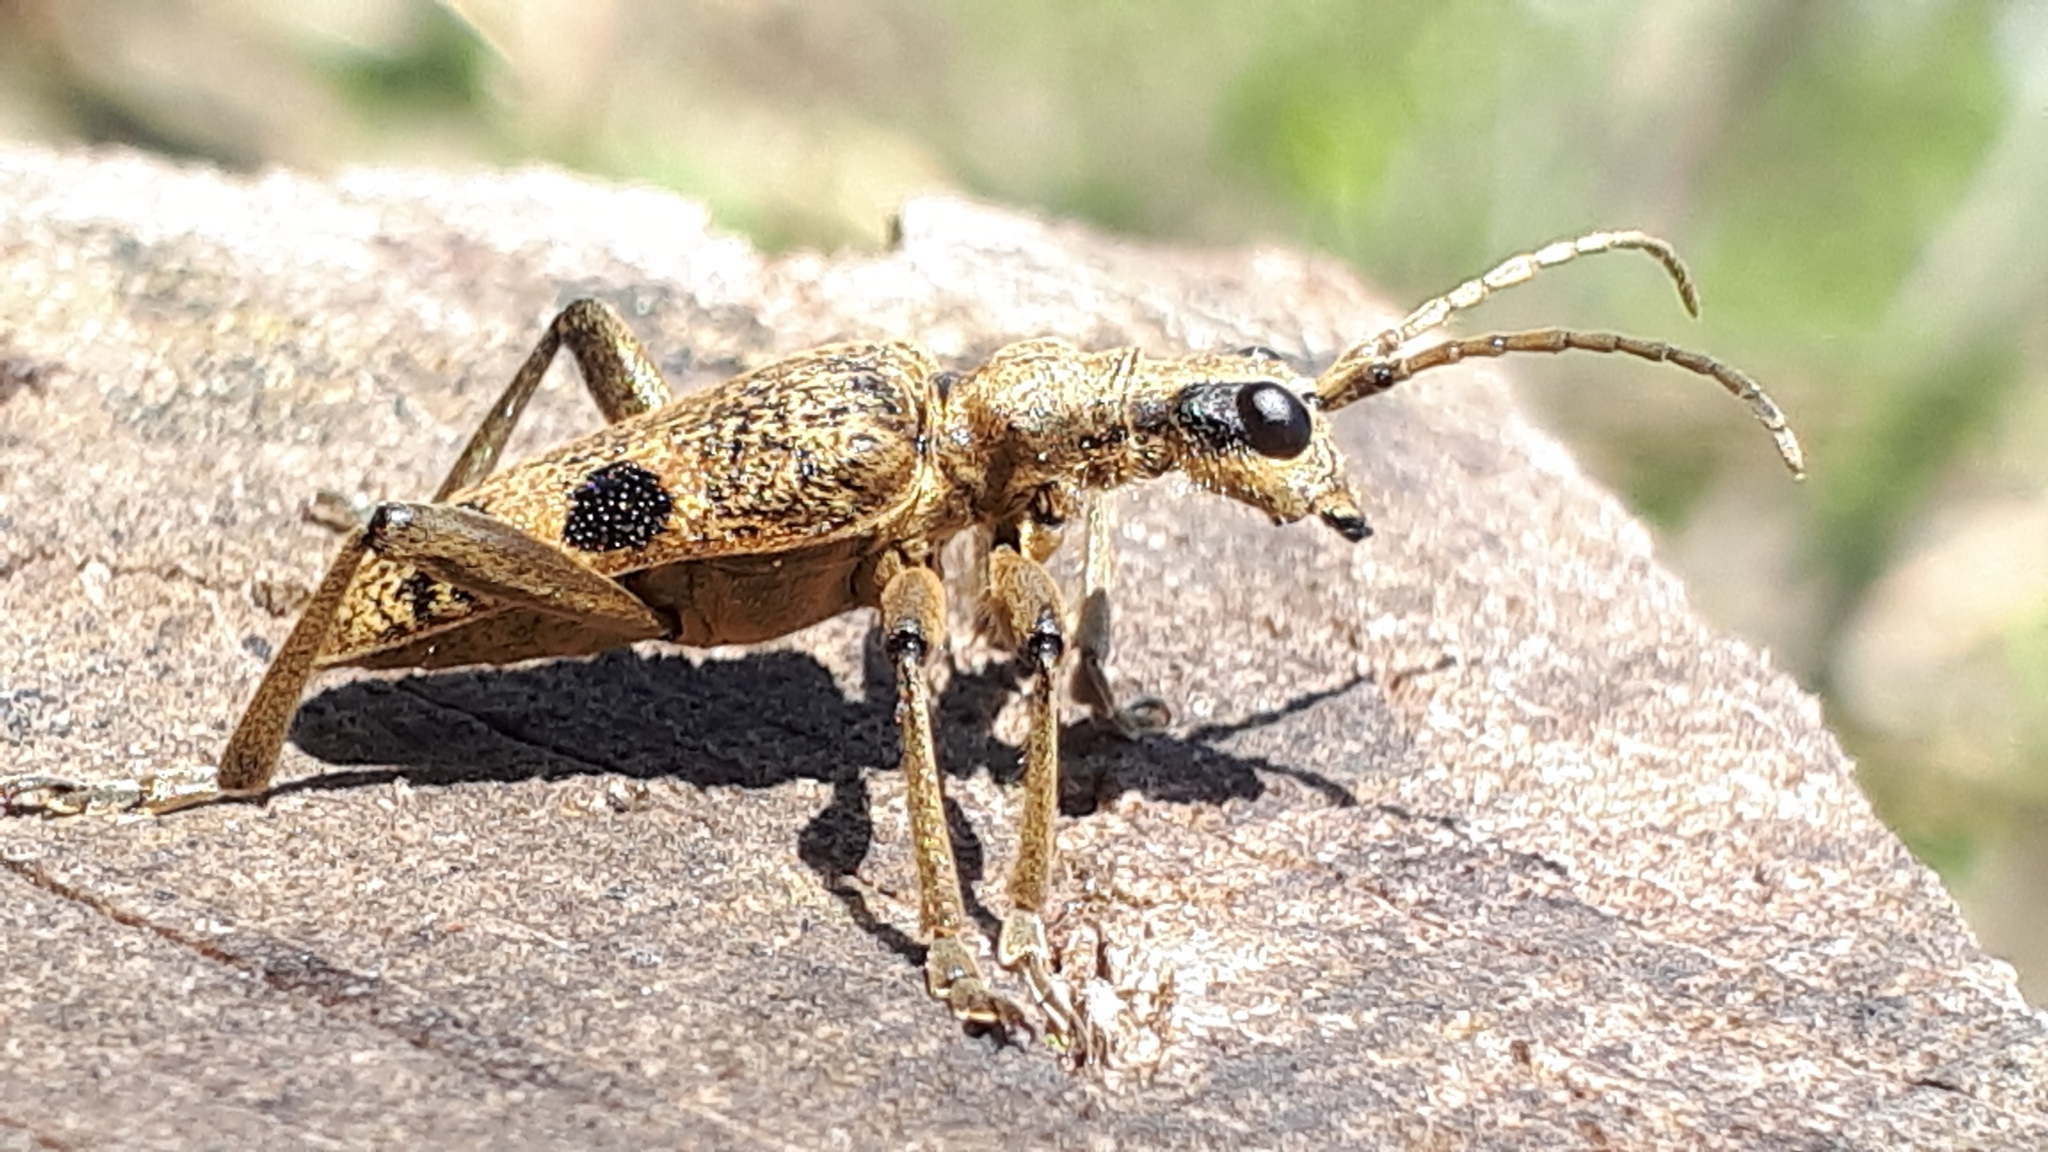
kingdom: Animalia
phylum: Arthropoda
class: Insecta
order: Coleoptera
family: Cerambycidae
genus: Rhagium
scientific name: Rhagium mordax
